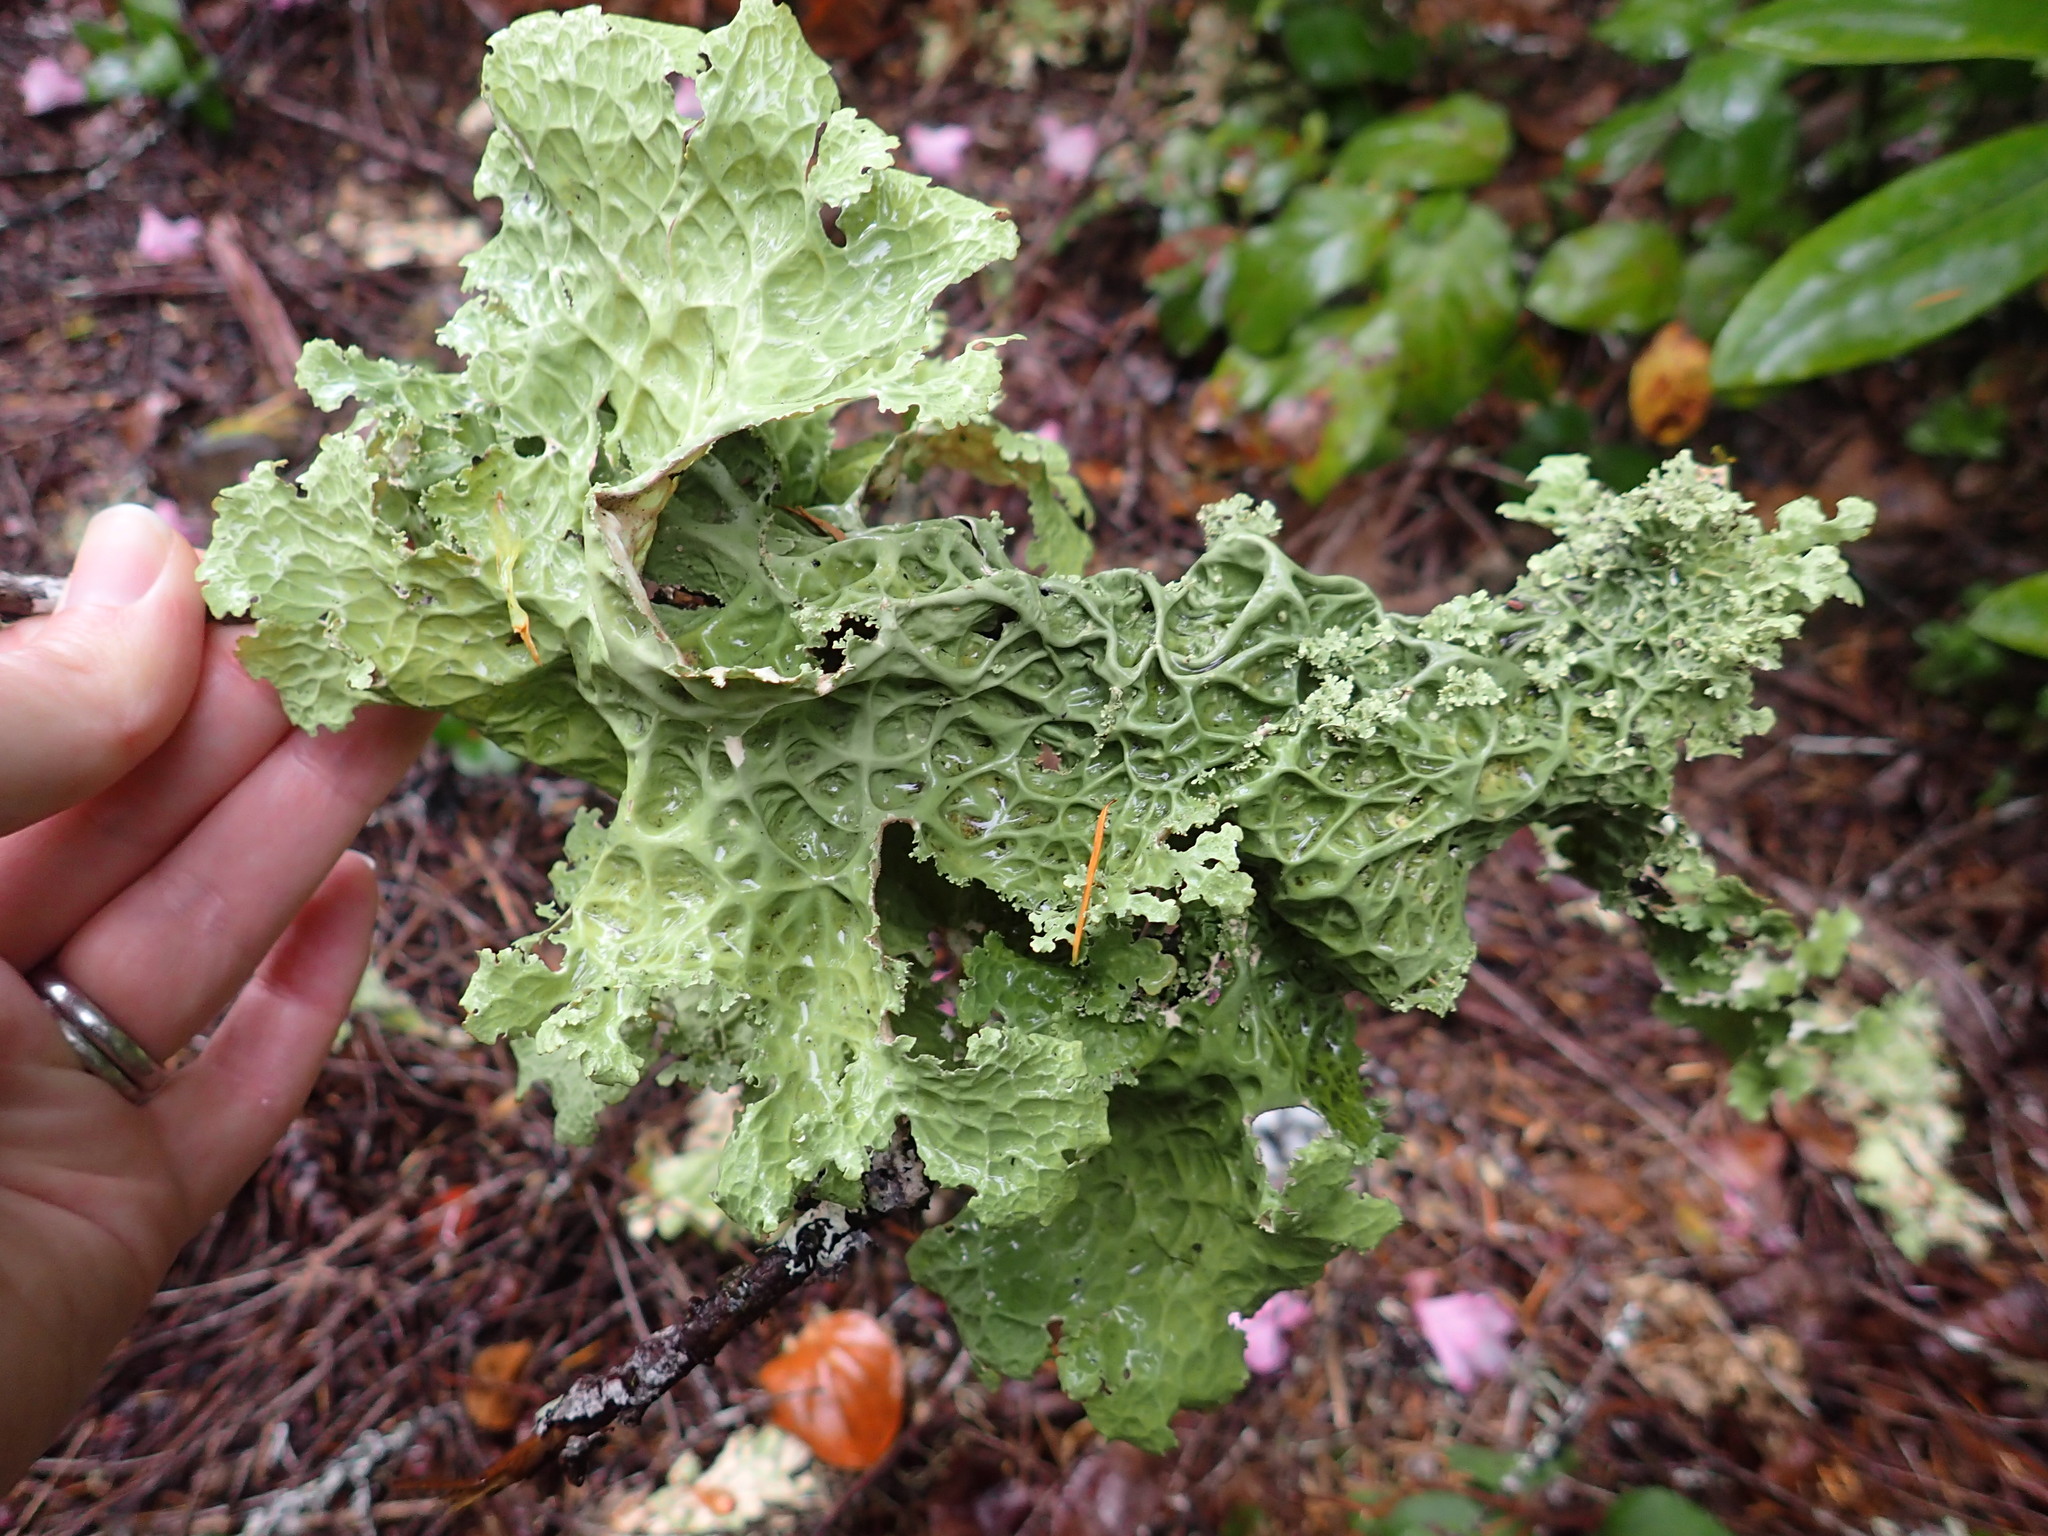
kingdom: Fungi
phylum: Ascomycota
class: Lecanoromycetes
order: Peltigerales
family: Lobariaceae
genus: Lobaria
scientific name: Lobaria oregana
